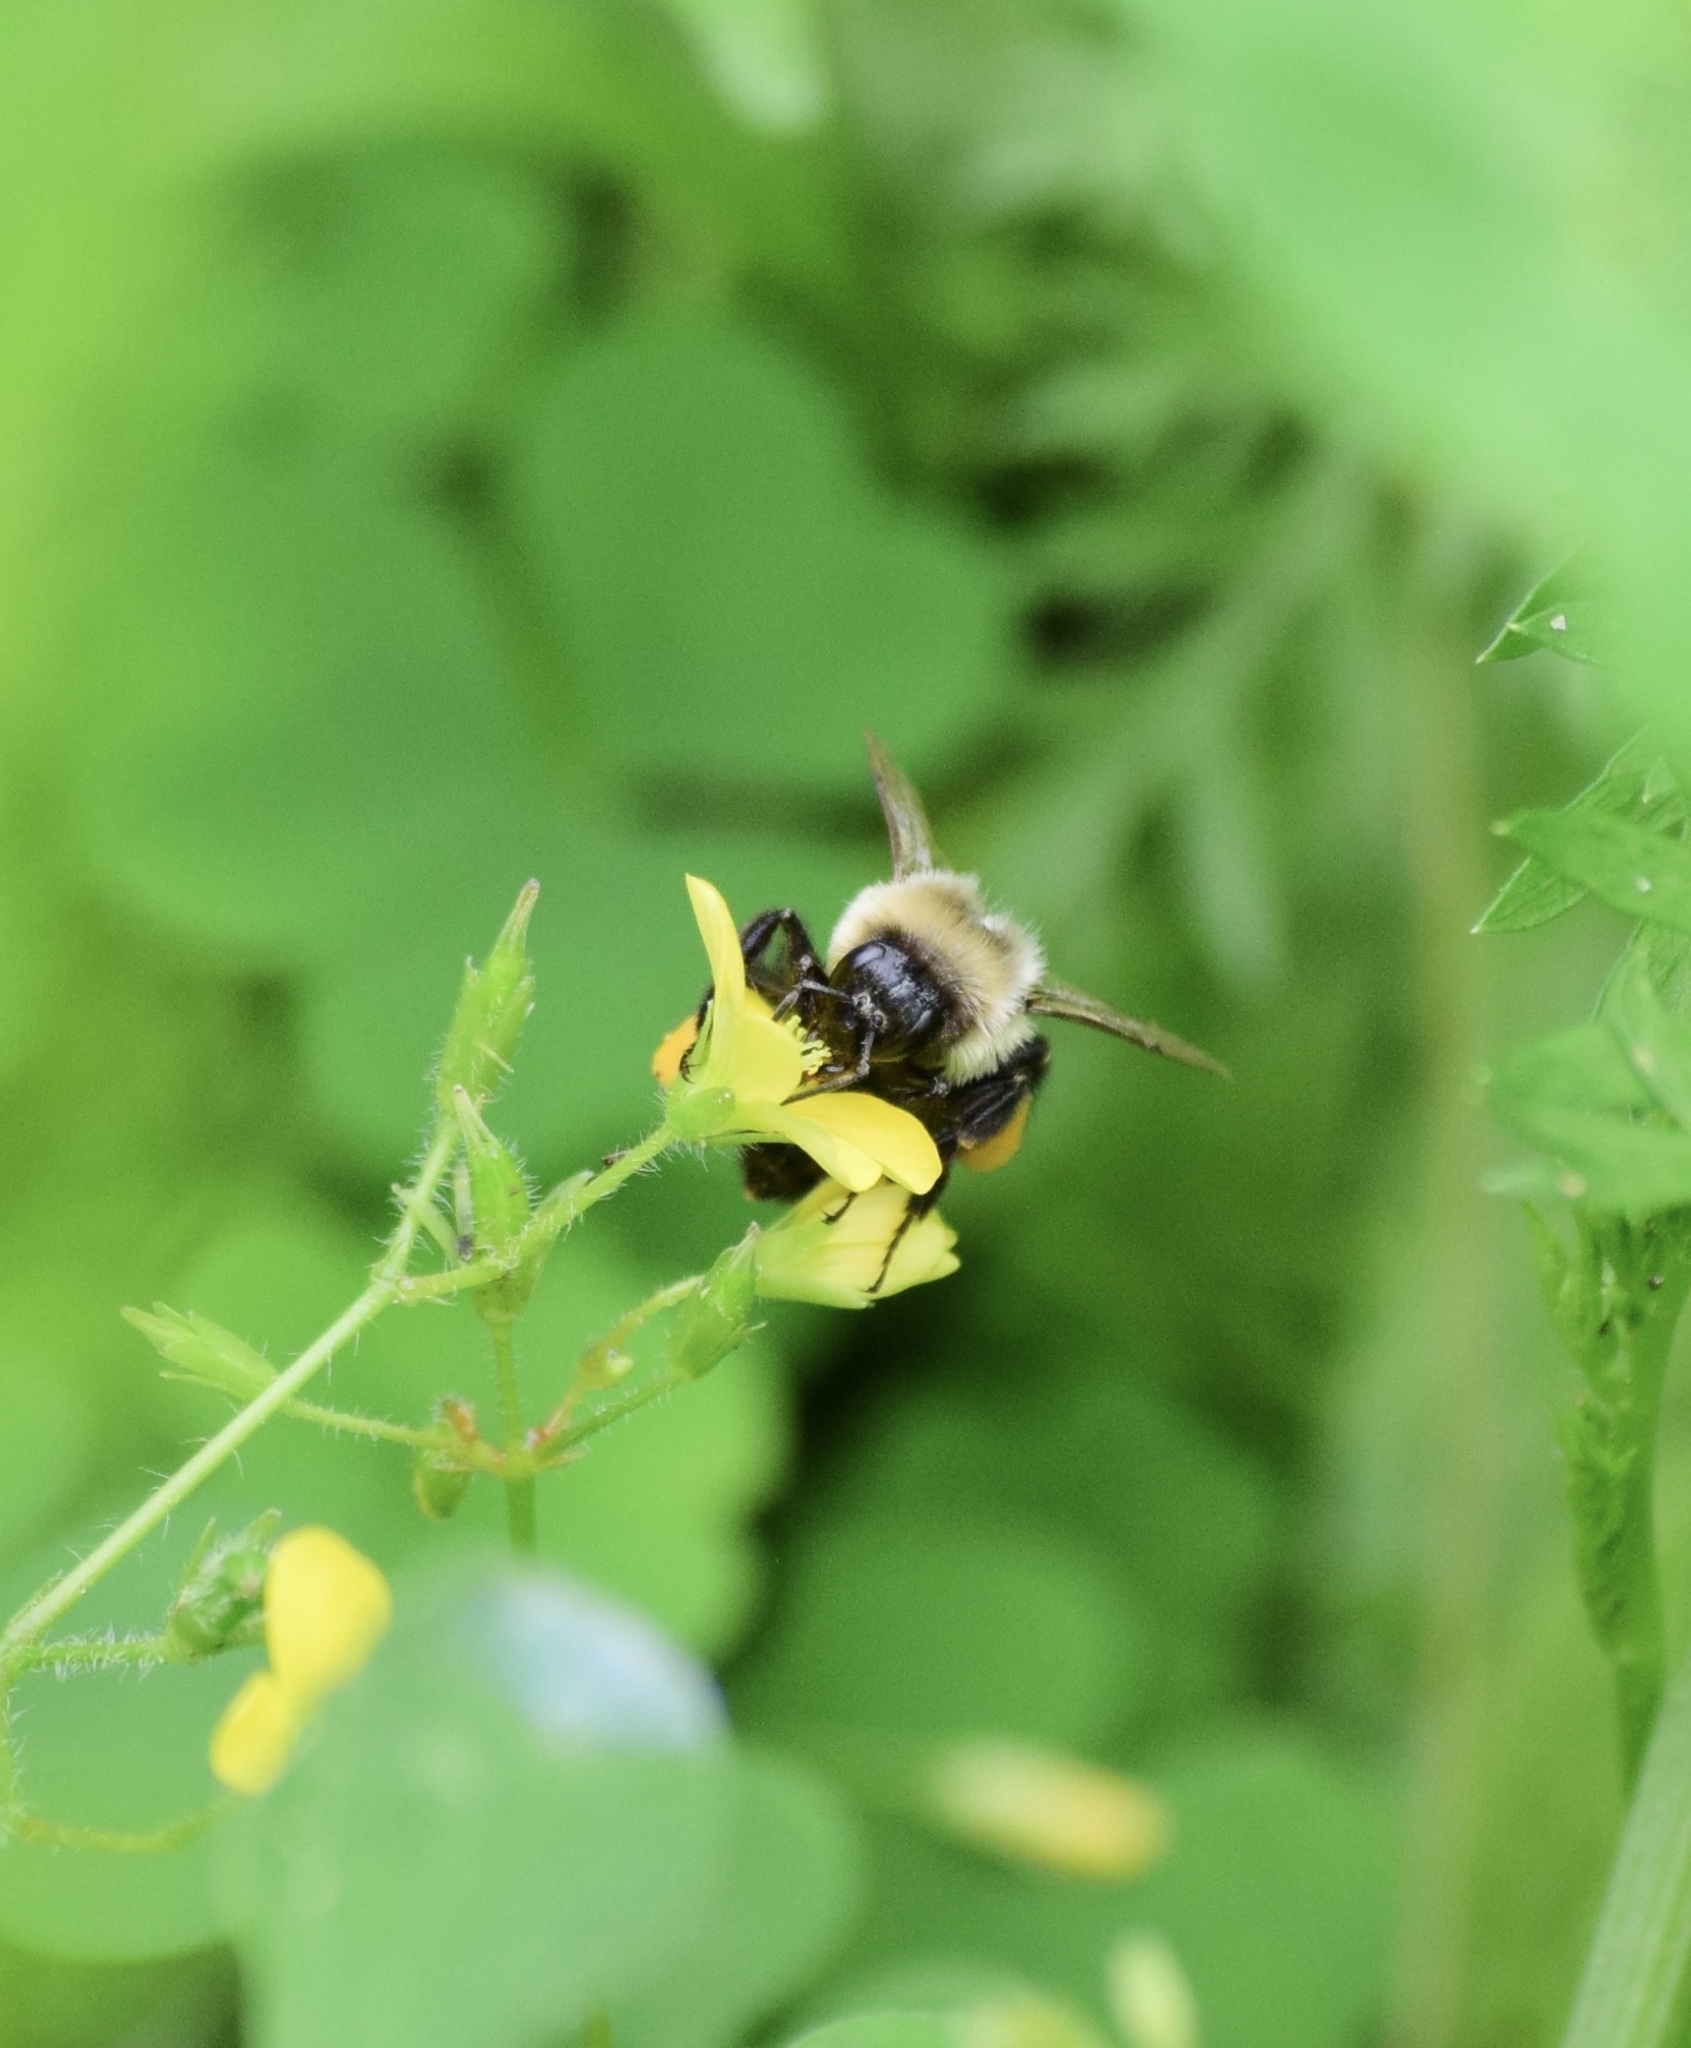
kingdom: Animalia
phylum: Arthropoda
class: Insecta
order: Hymenoptera
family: Apidae
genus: Bombus
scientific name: Bombus impatiens
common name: Common eastern bumble bee
